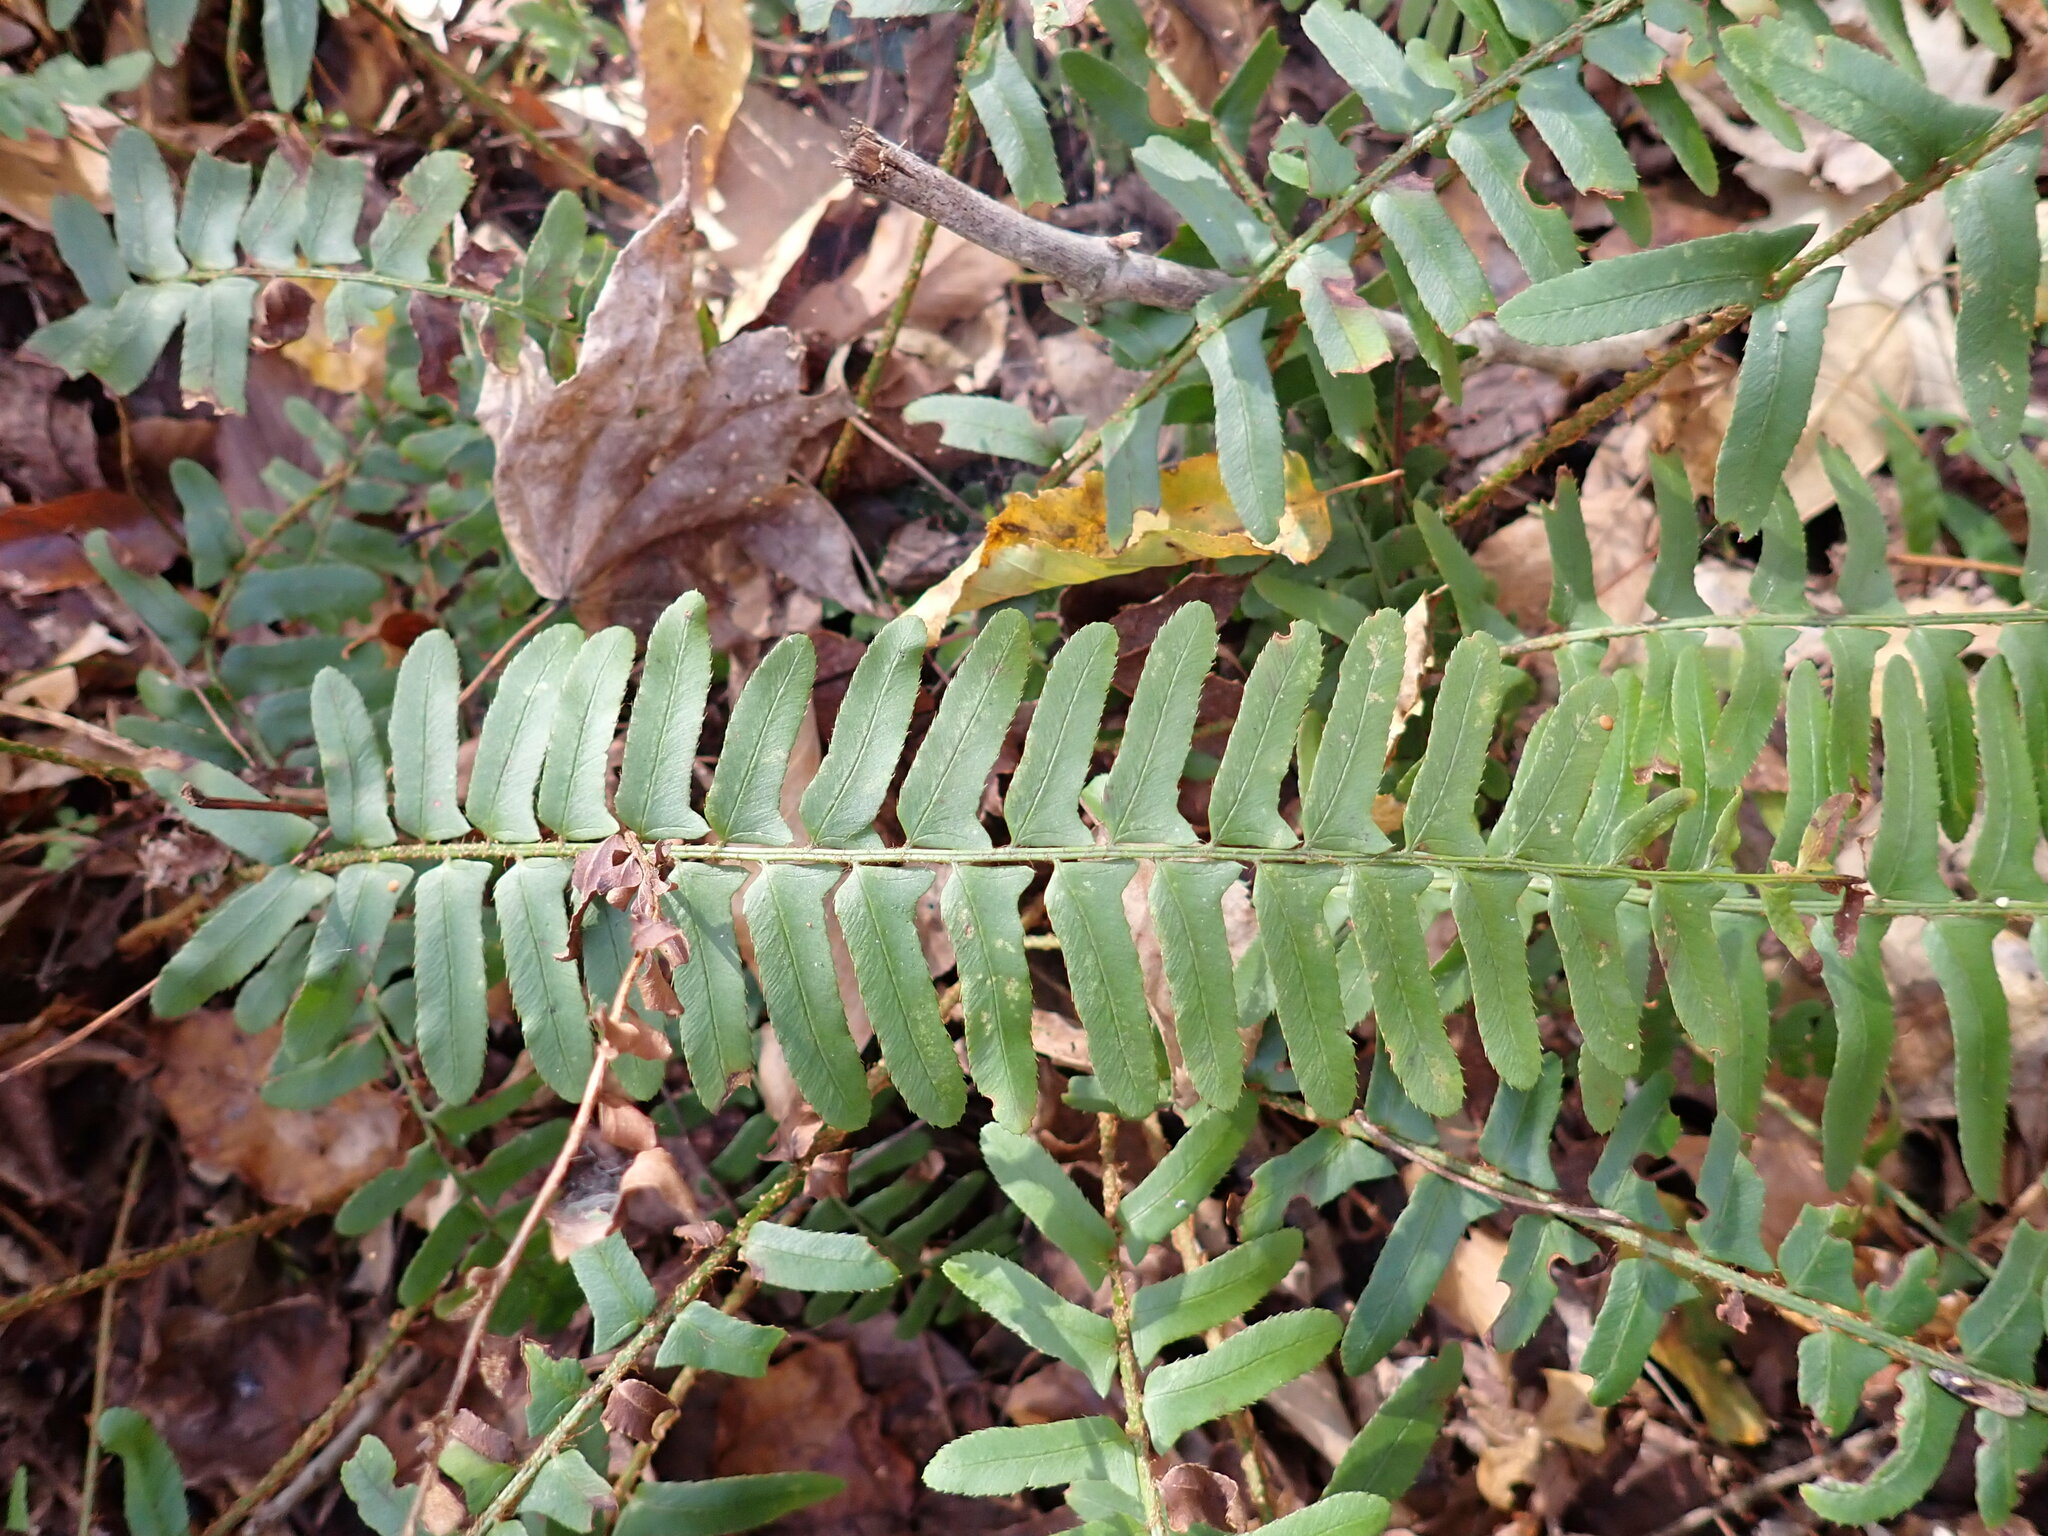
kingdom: Plantae
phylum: Tracheophyta
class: Polypodiopsida
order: Polypodiales
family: Dryopteridaceae
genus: Polystichum
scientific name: Polystichum acrostichoides
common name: Christmas fern
